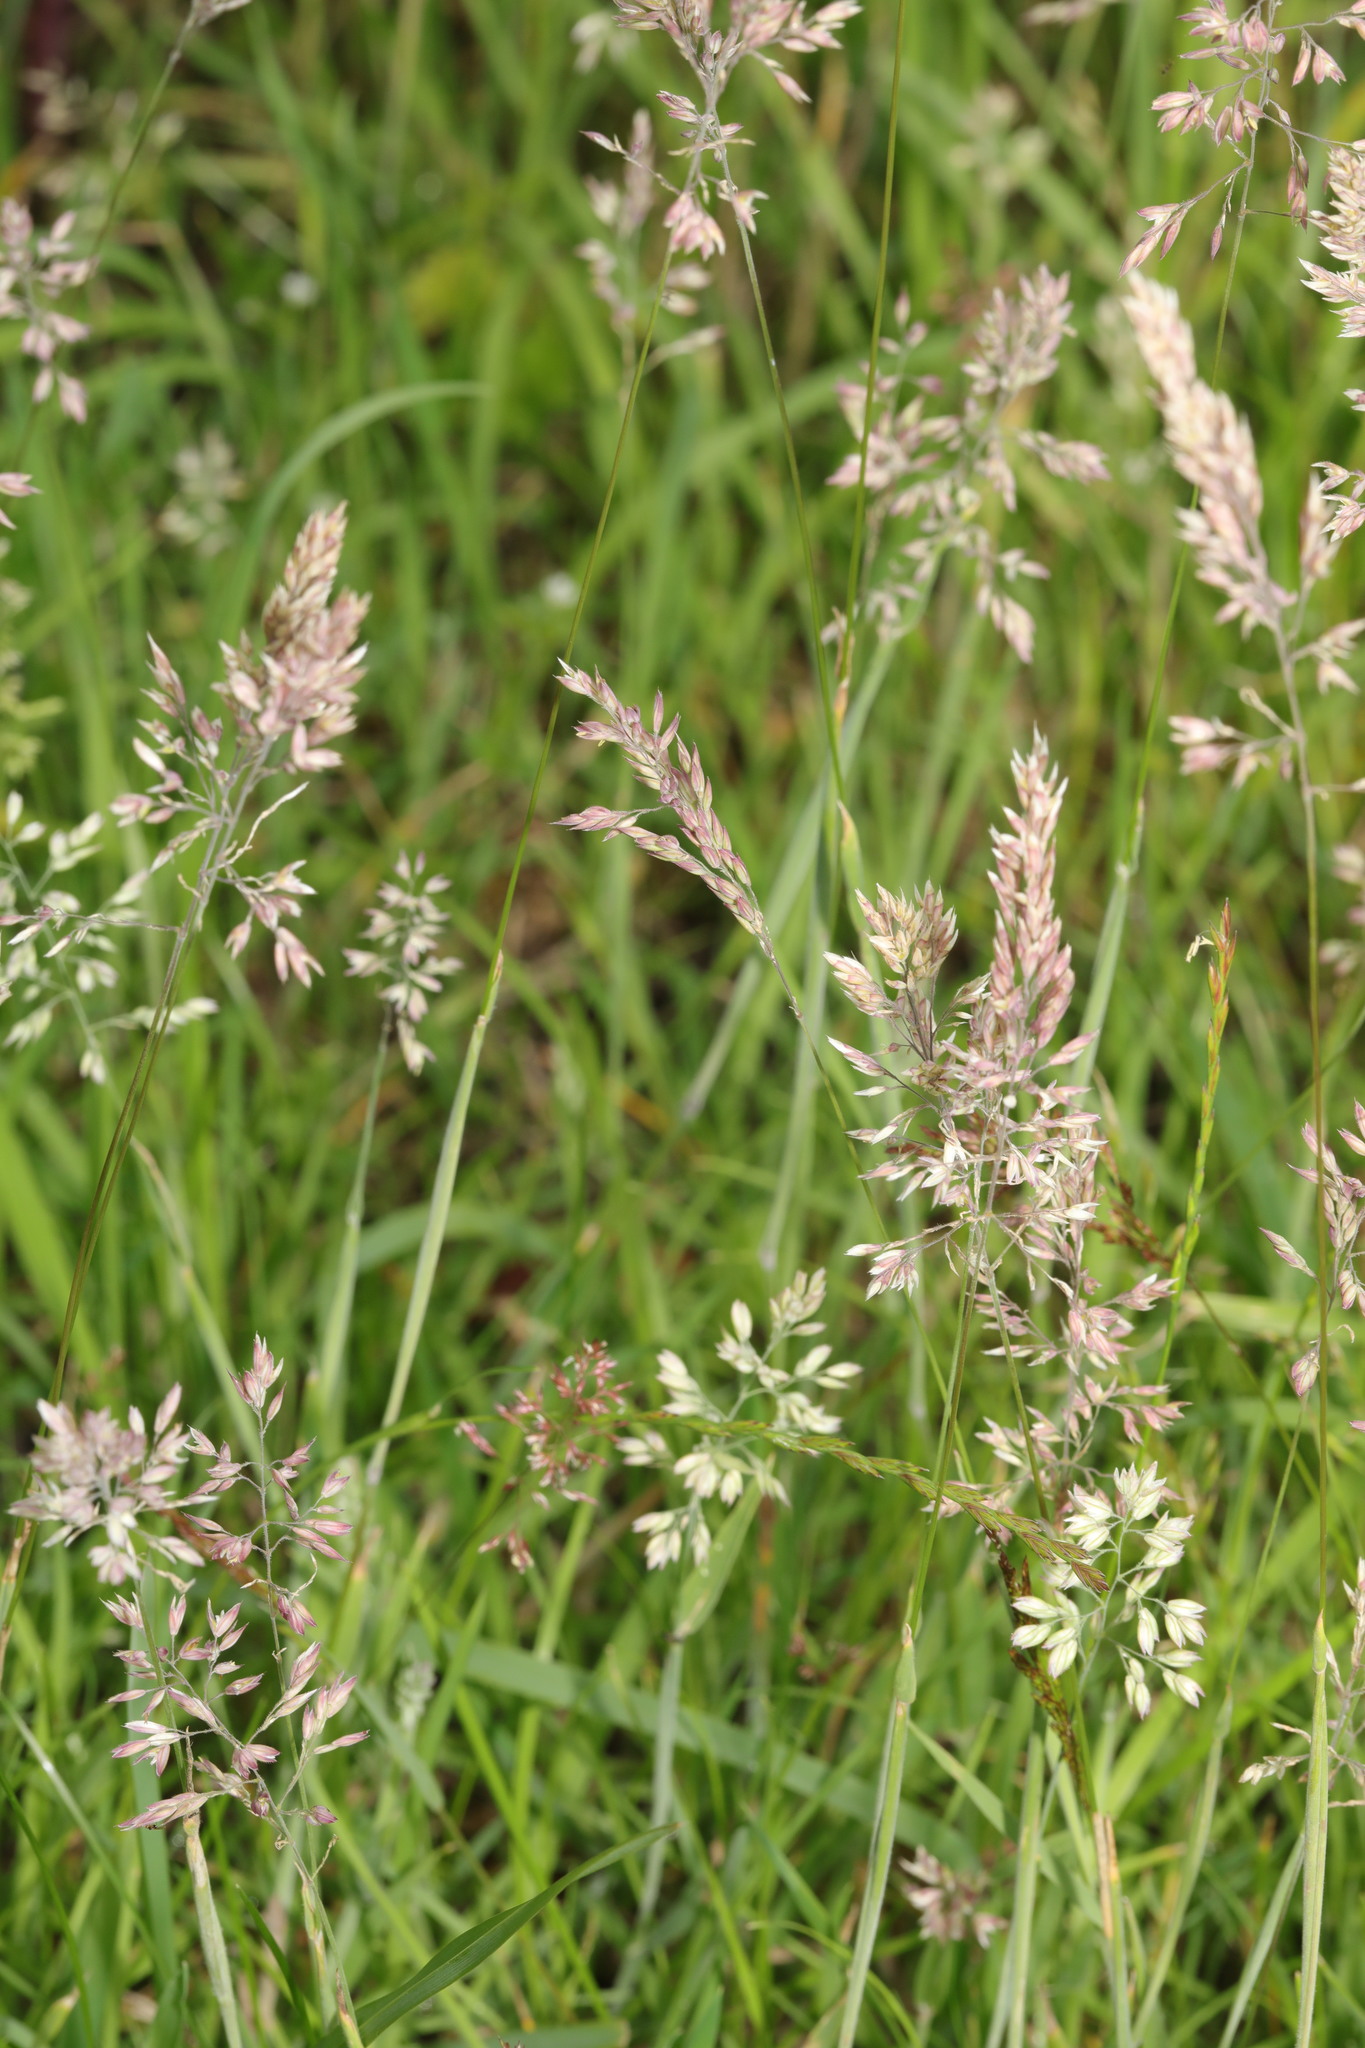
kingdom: Plantae
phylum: Tracheophyta
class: Liliopsida
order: Poales
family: Poaceae
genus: Holcus
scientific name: Holcus lanatus
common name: Yorkshire-fog
